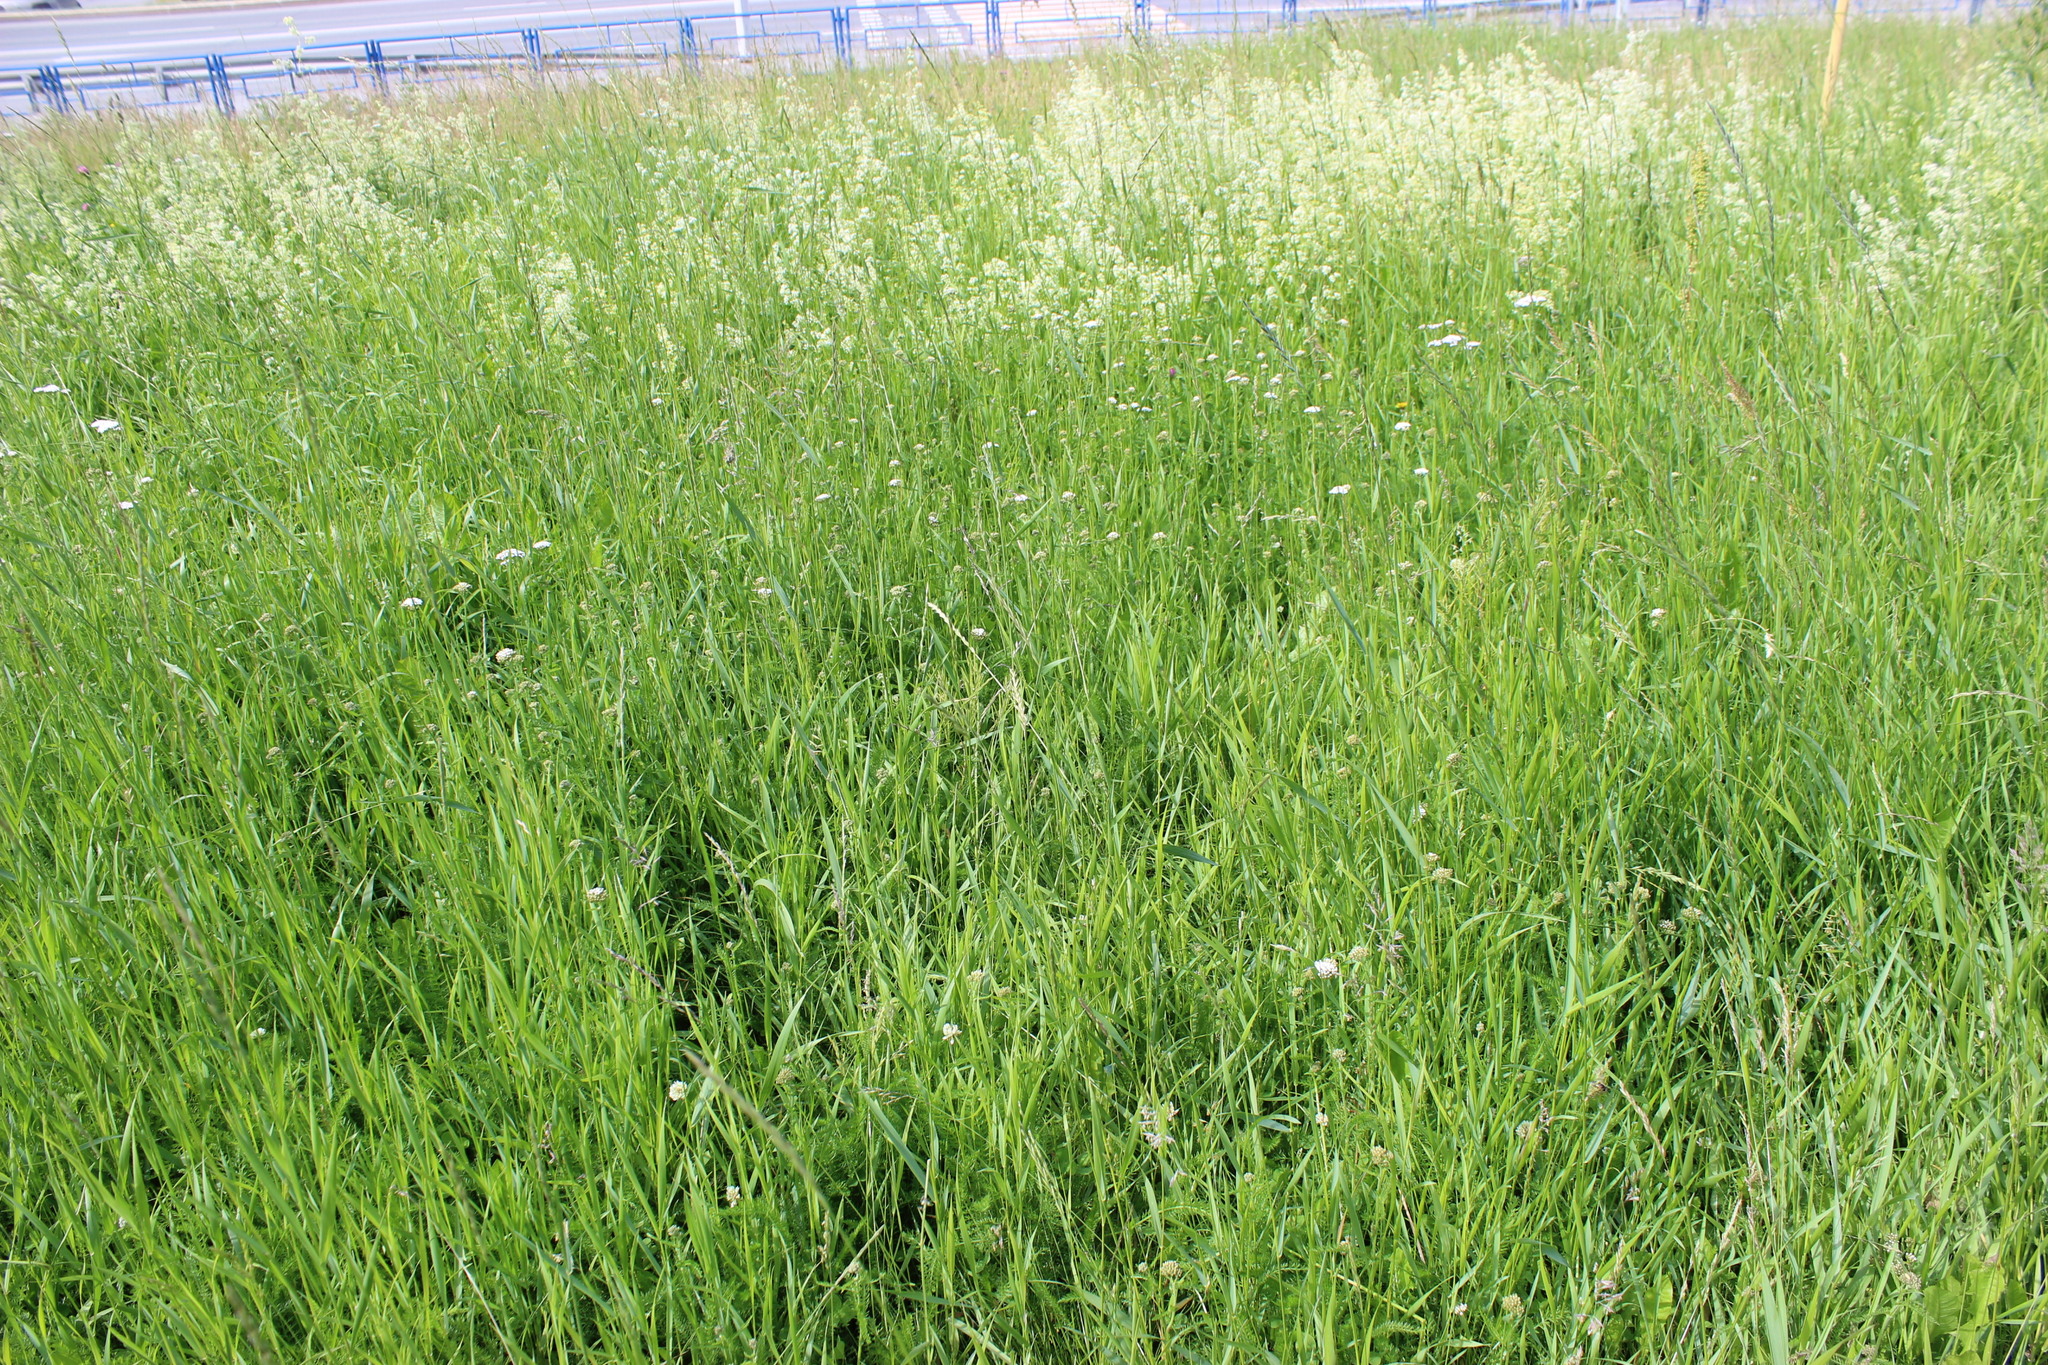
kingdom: Plantae
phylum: Tracheophyta
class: Magnoliopsida
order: Gentianales
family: Rubiaceae
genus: Galium
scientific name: Galium mollugo
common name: Hedge bedstraw
